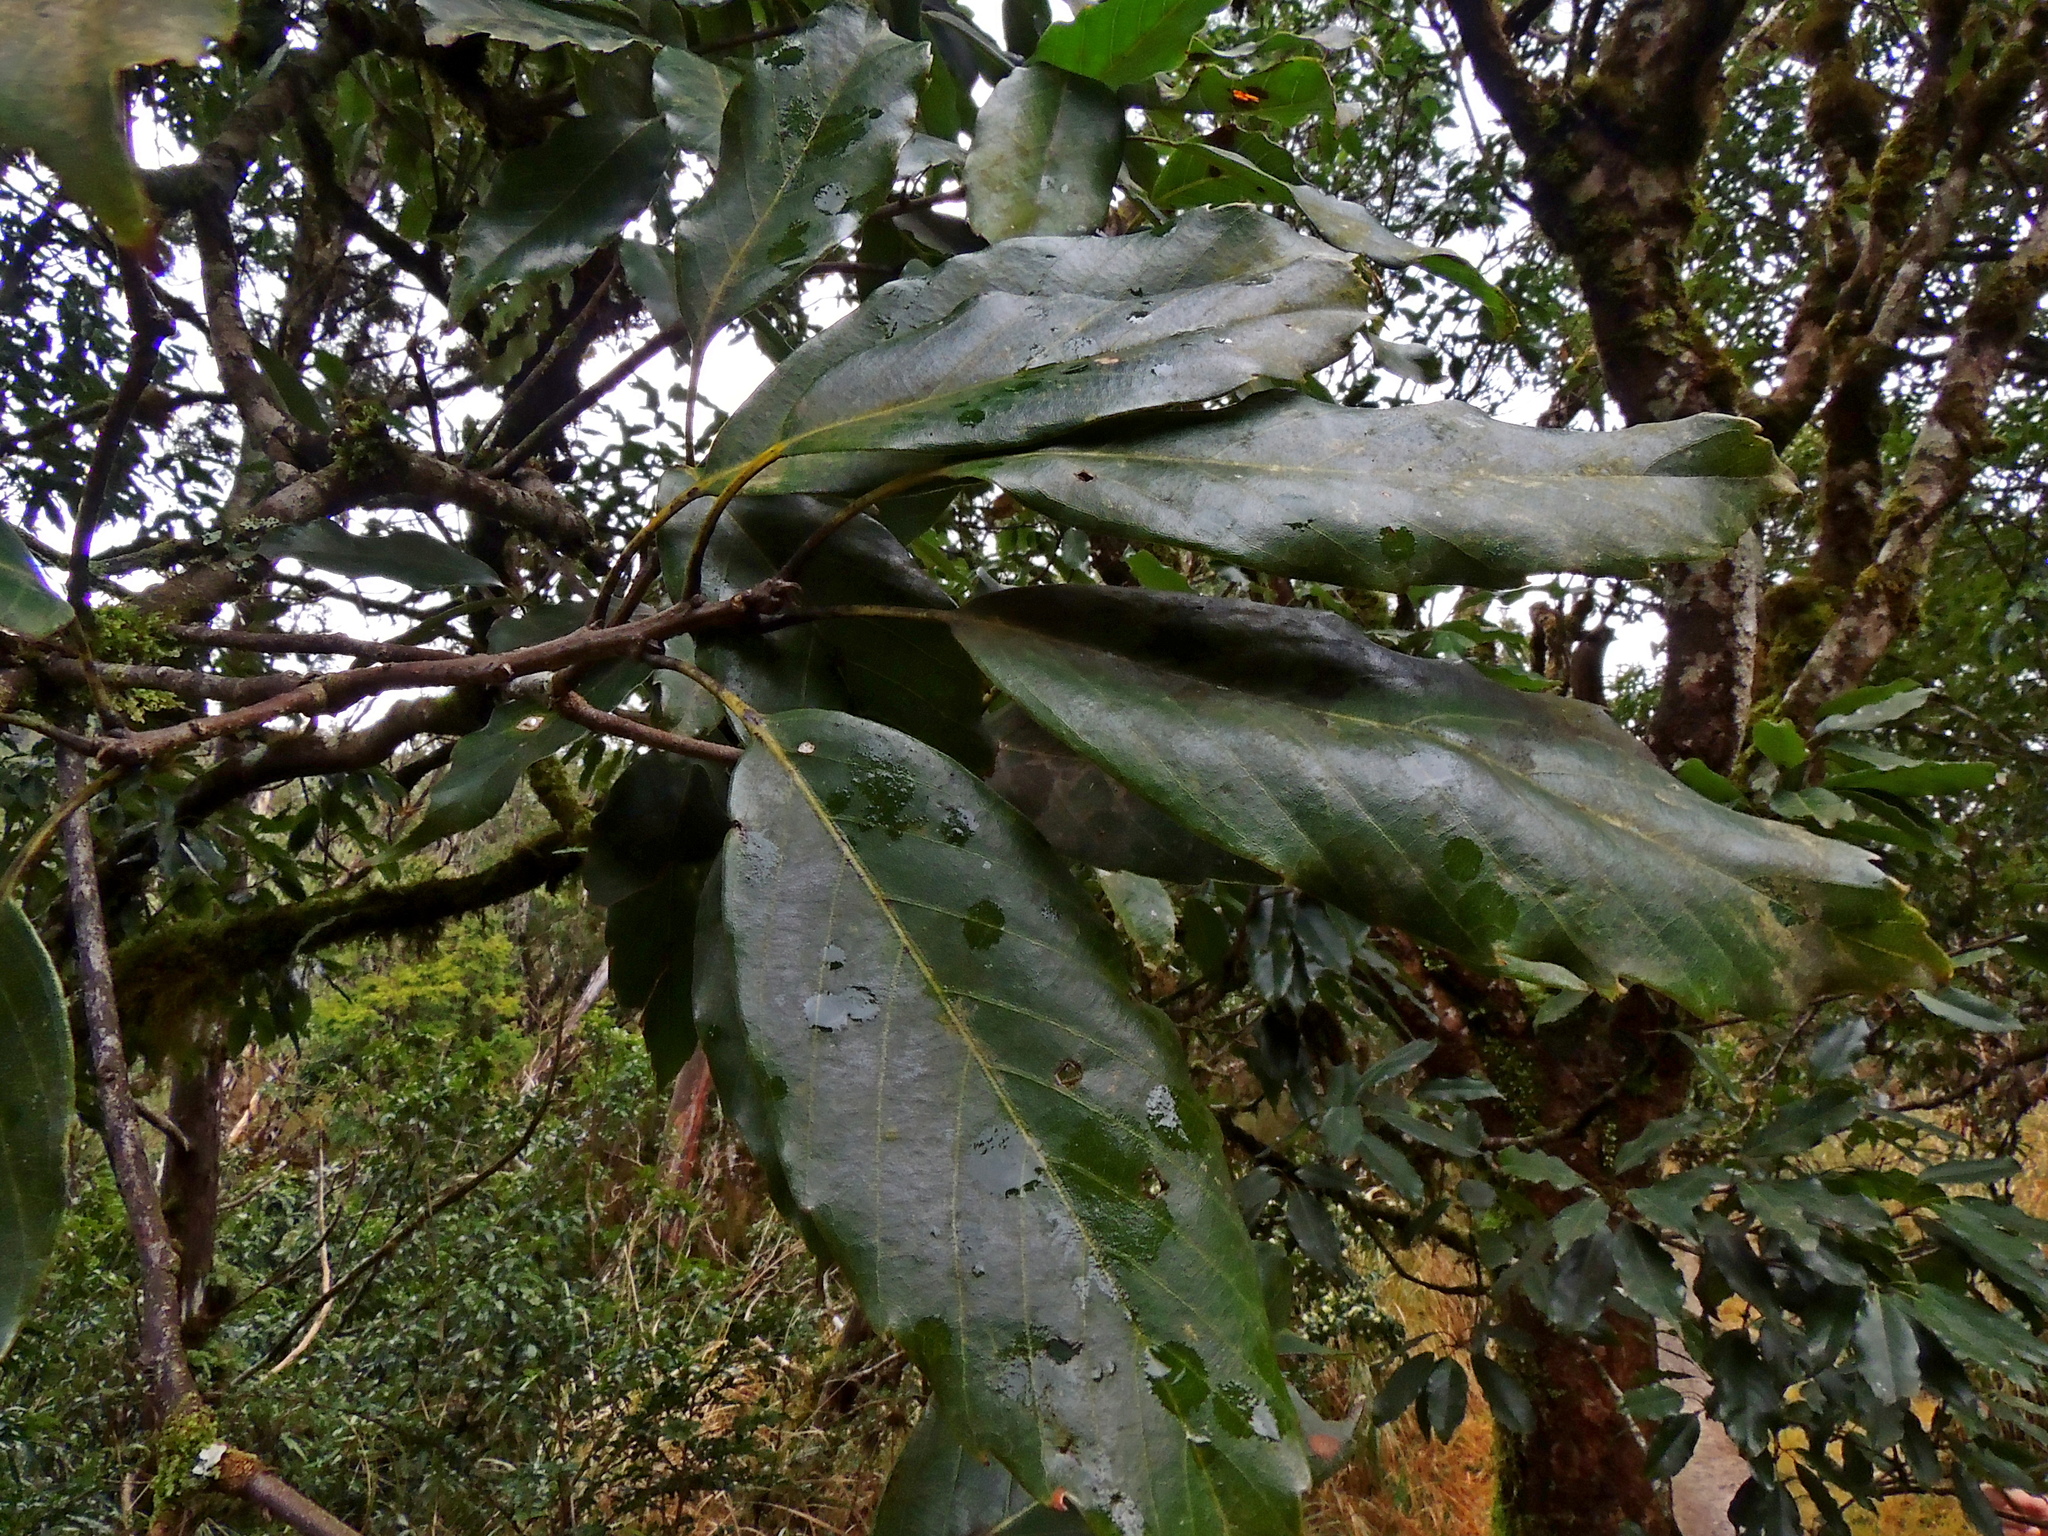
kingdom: Plantae
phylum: Tracheophyta
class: Magnoliopsida
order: Fagales
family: Fagaceae
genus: Quercus
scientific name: Quercus morii
